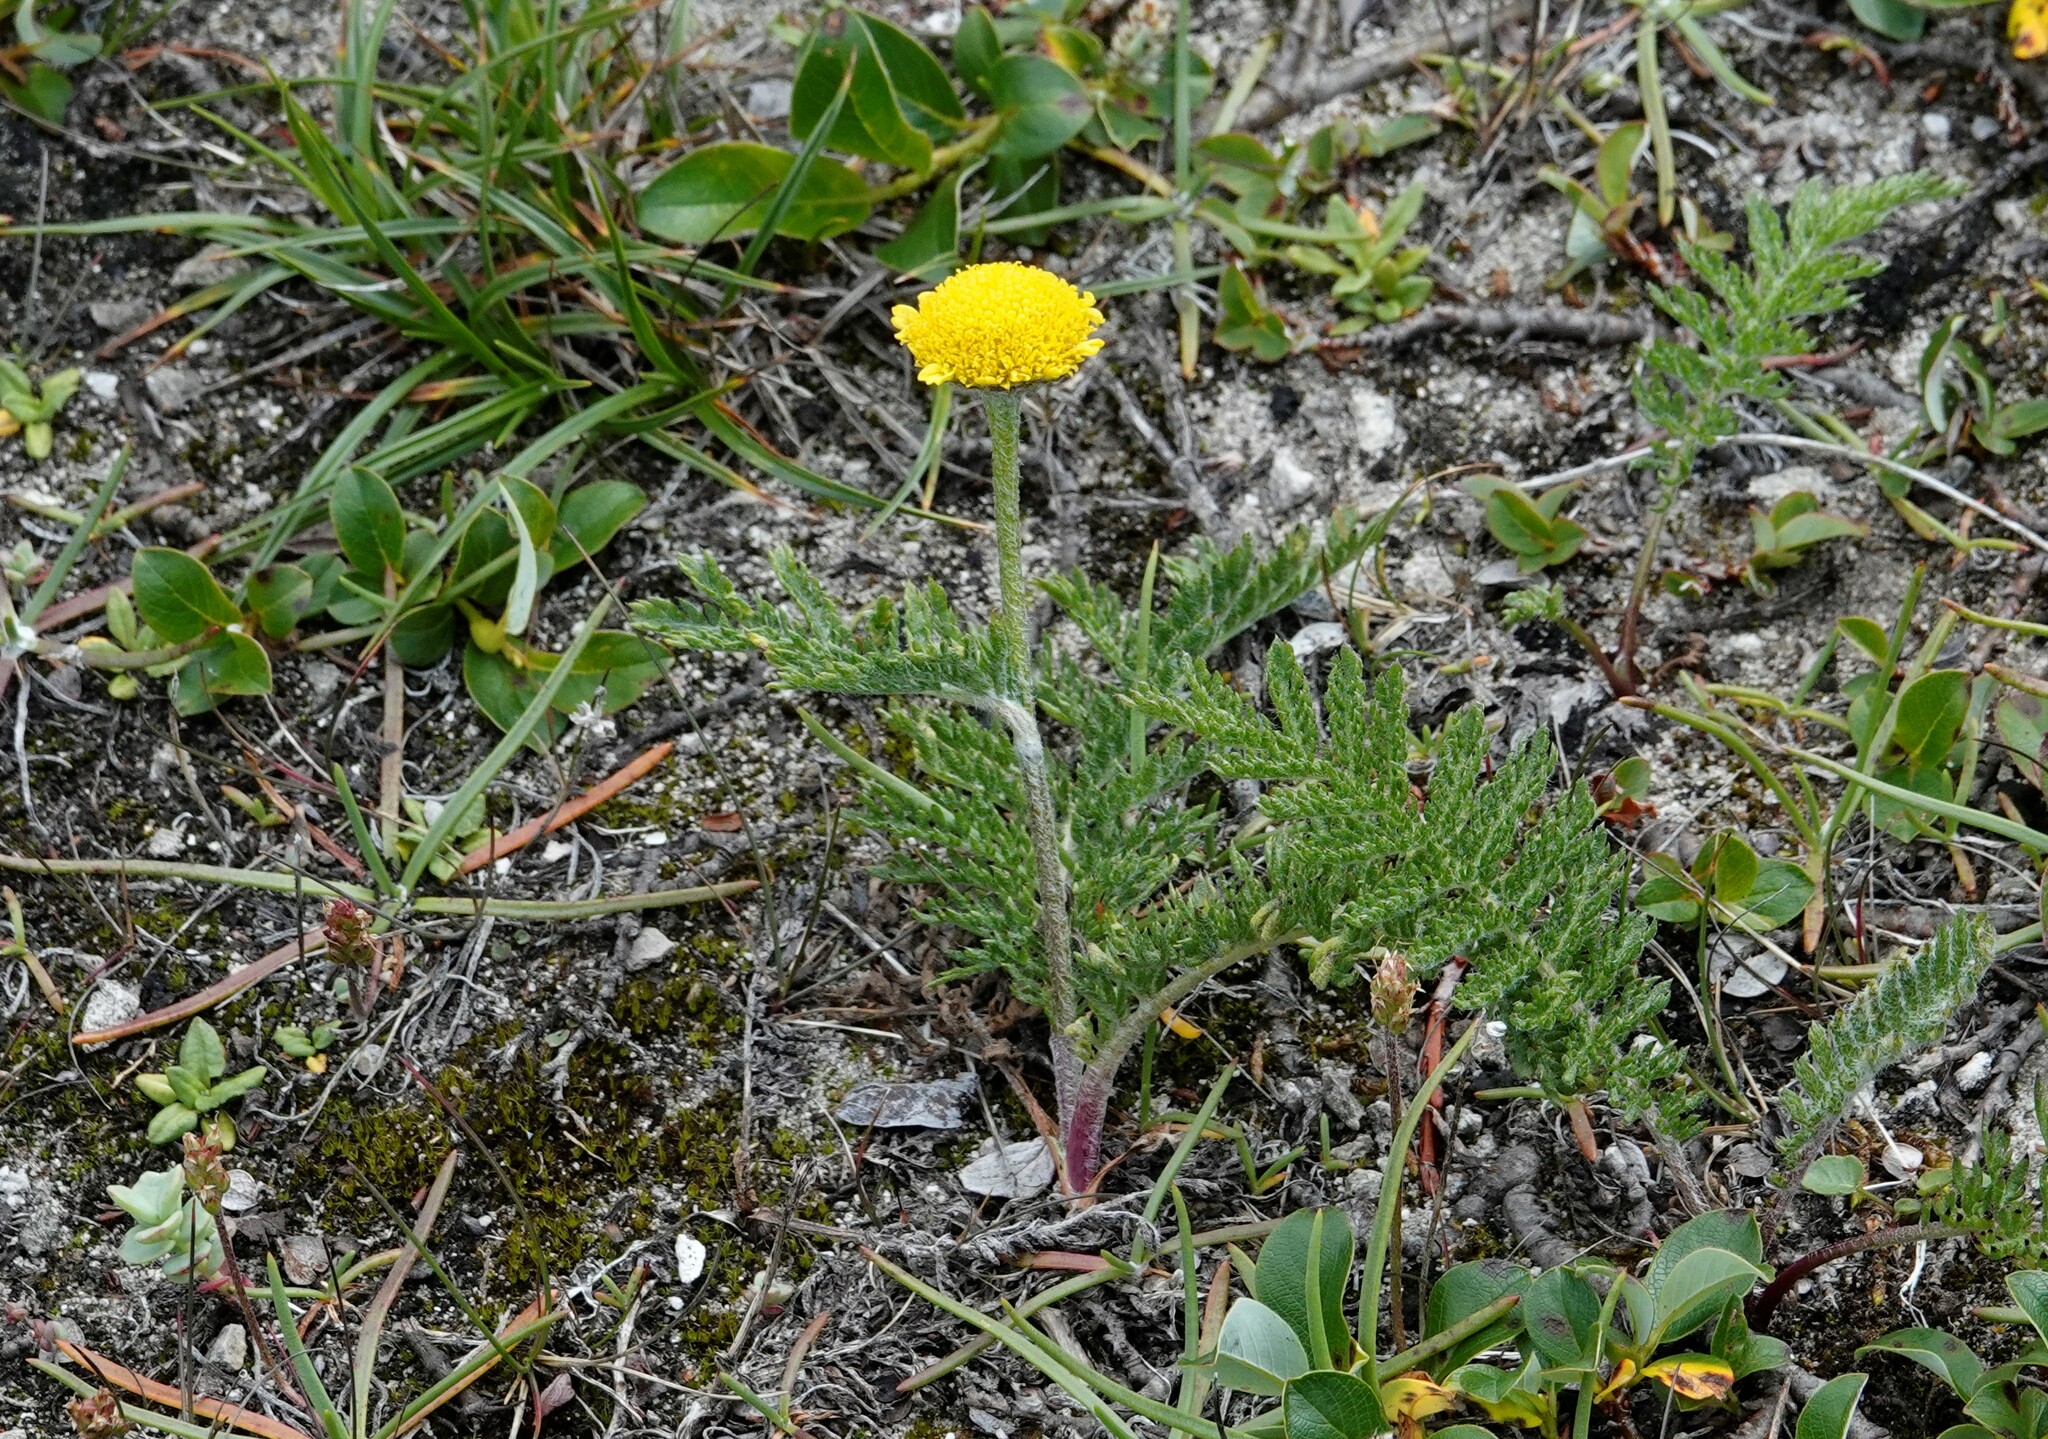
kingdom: Plantae
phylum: Tracheophyta
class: Magnoliopsida
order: Asterales
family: Asteraceae
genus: Tanacetum
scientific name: Tanacetum bipinnatum
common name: Dwarf tansy
